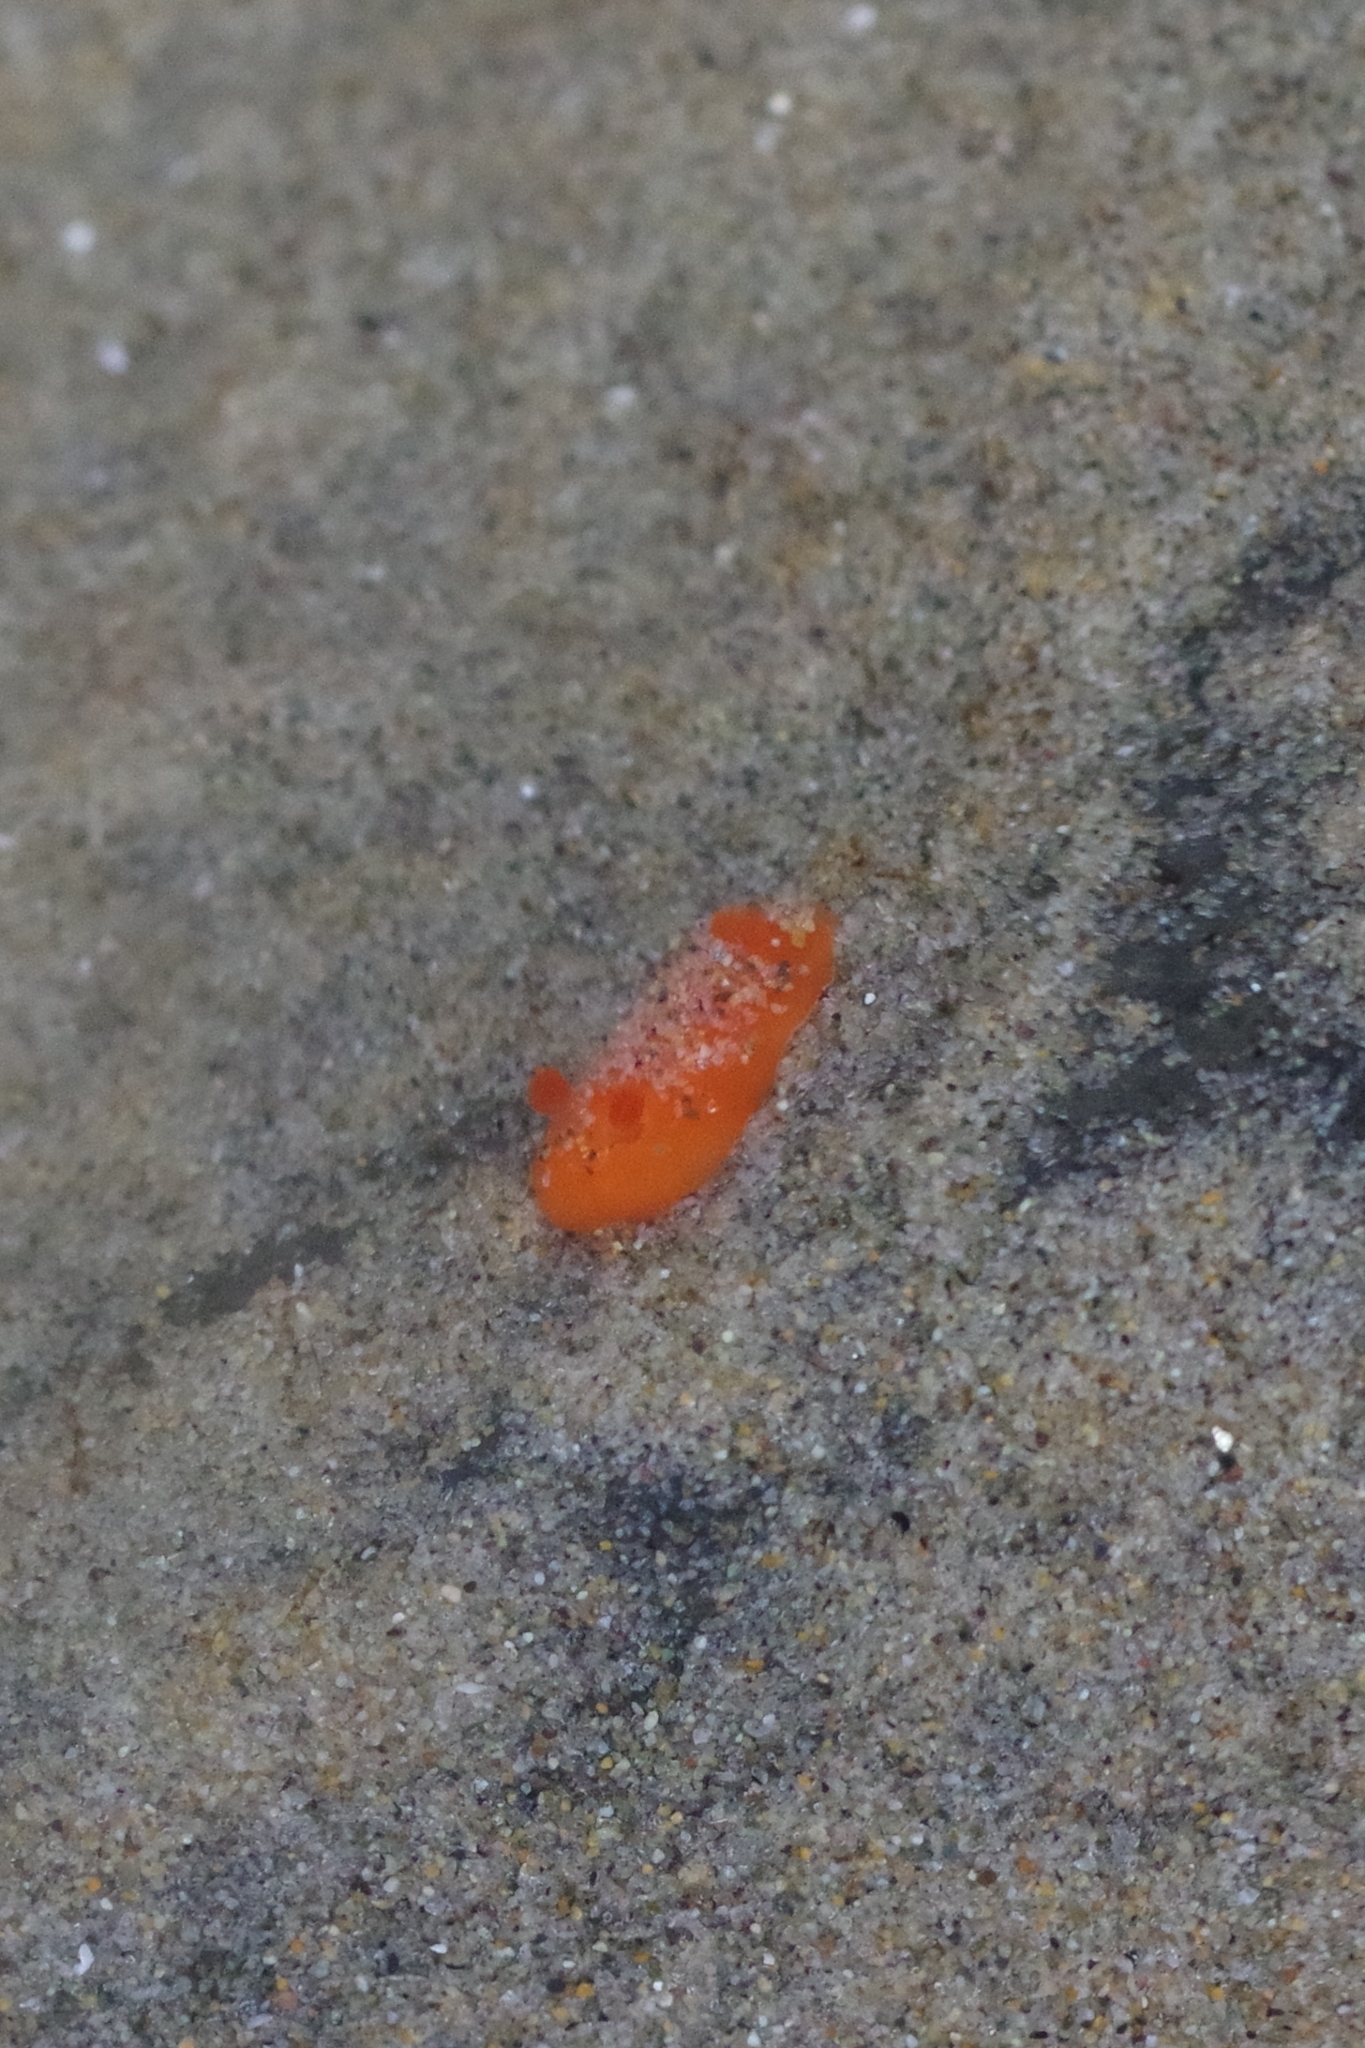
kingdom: Animalia
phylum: Mollusca
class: Gastropoda
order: Nudibranchia
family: Discodorididae
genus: Rostanga
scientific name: Rostanga pulchra
